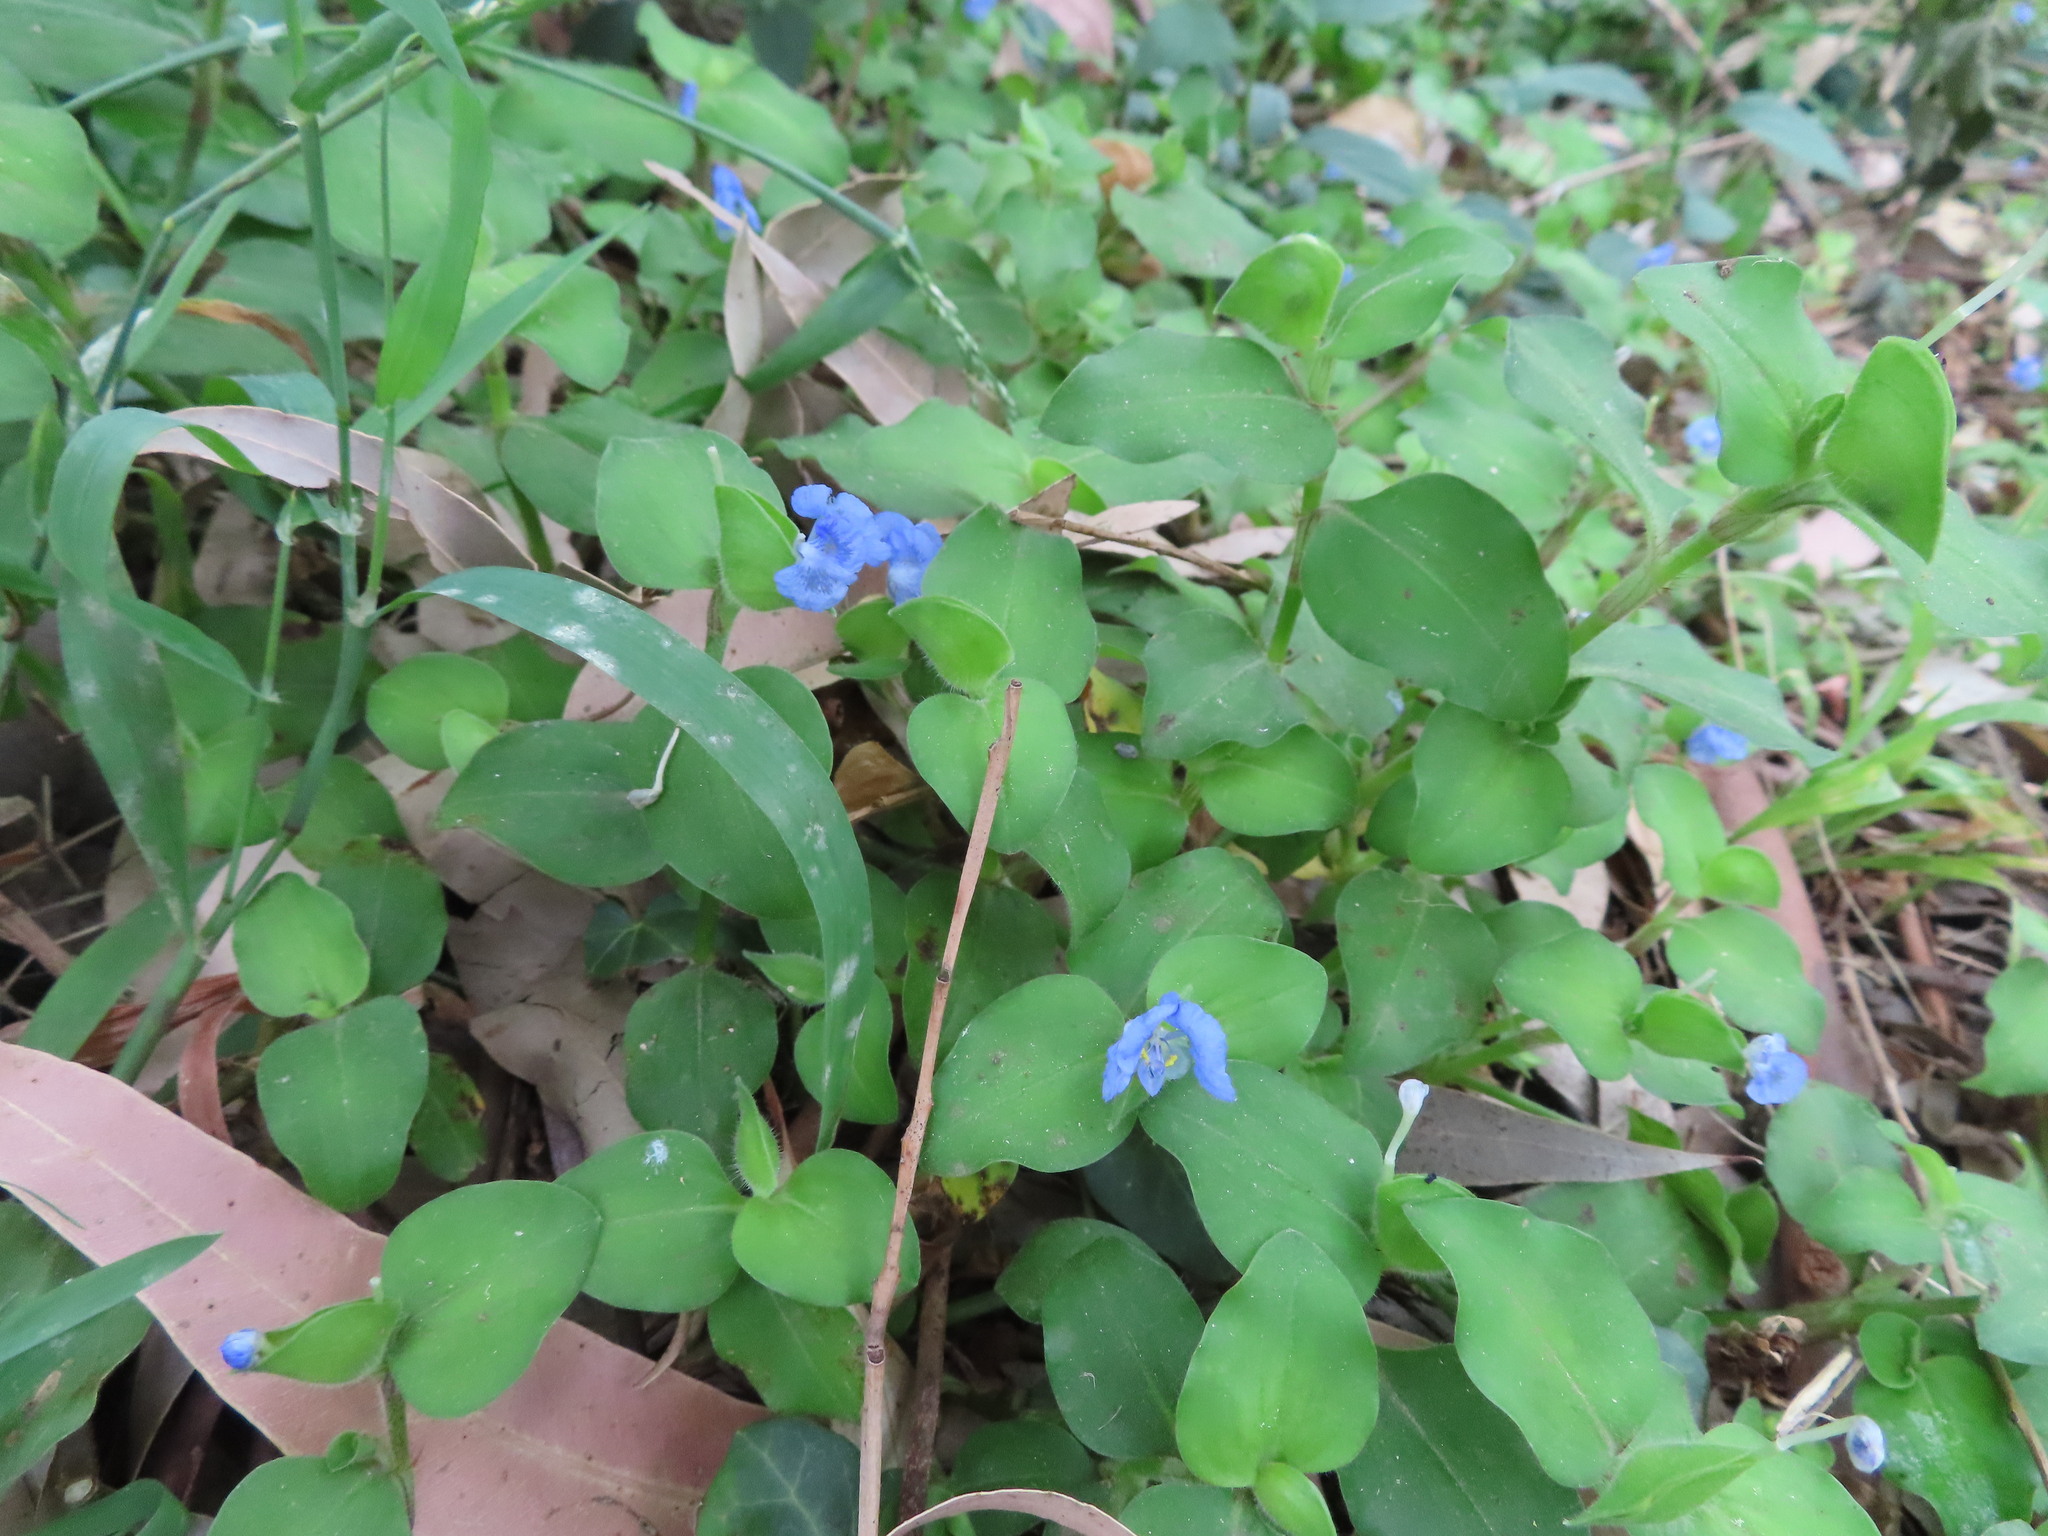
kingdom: Plantae
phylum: Tracheophyta
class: Liliopsida
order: Commelinales
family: Commelinaceae
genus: Commelina
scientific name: Commelina benghalensis
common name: Jio
